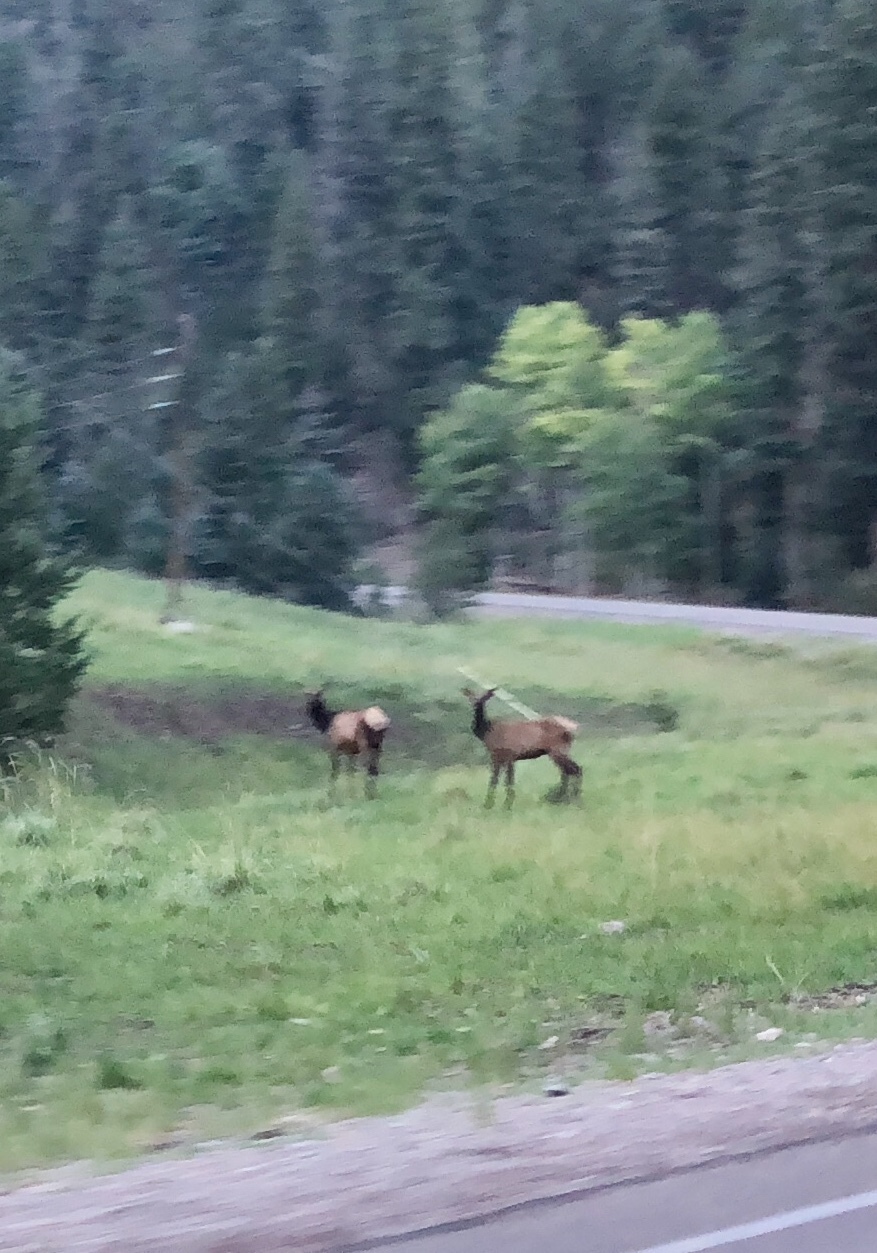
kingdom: Animalia
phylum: Chordata
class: Mammalia
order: Artiodactyla
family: Cervidae
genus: Cervus
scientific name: Cervus elaphus
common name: Red deer
